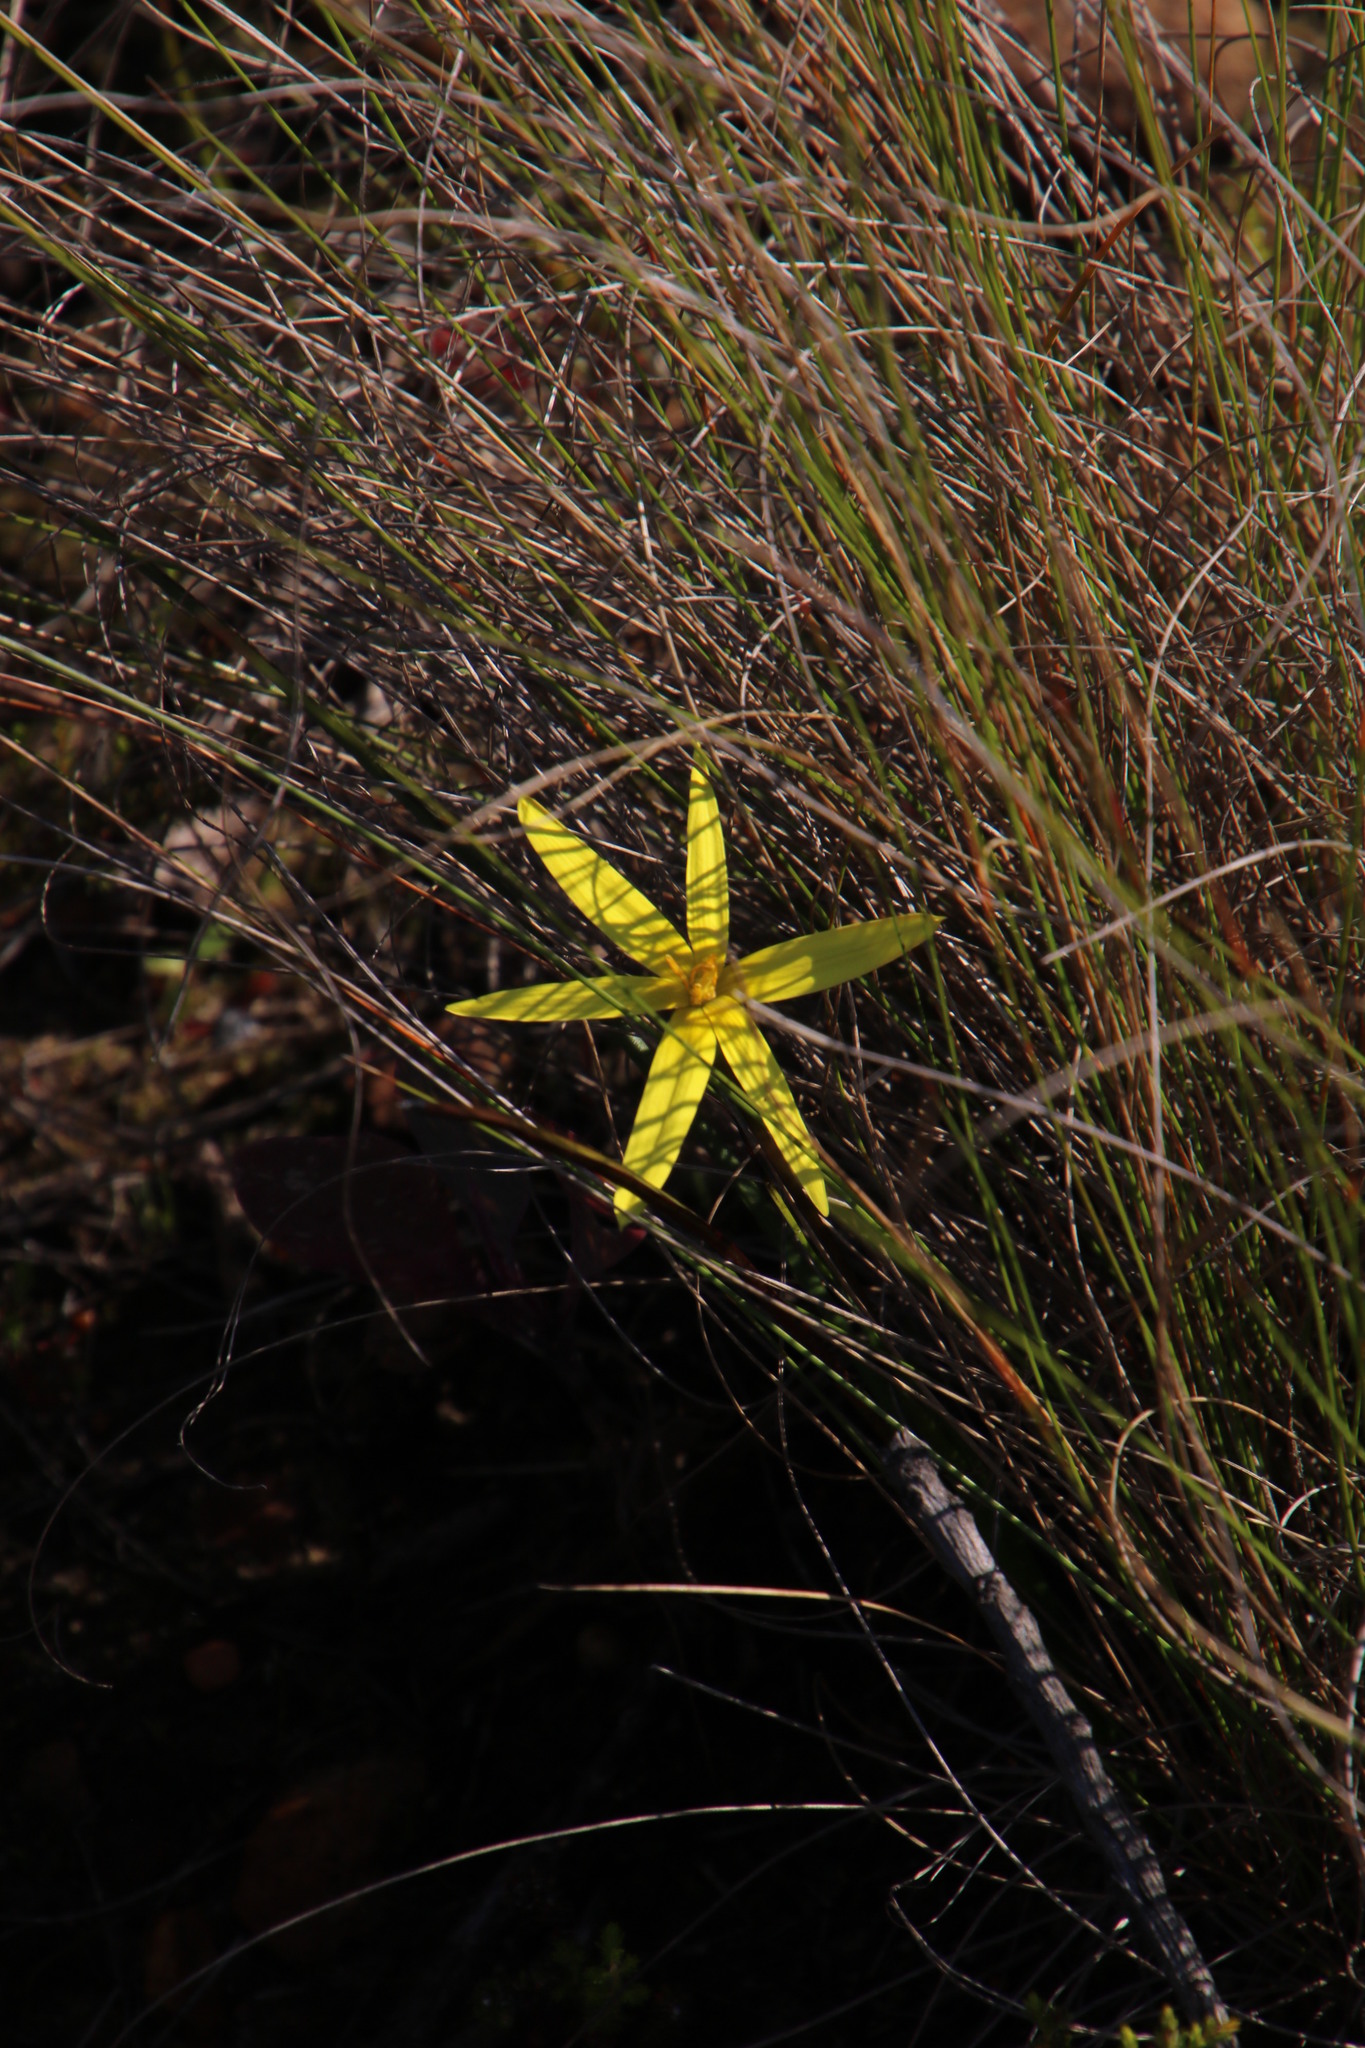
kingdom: Plantae
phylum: Tracheophyta
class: Liliopsida
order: Asparagales
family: Hypoxidaceae
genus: Pauridia
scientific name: Pauridia capensis
